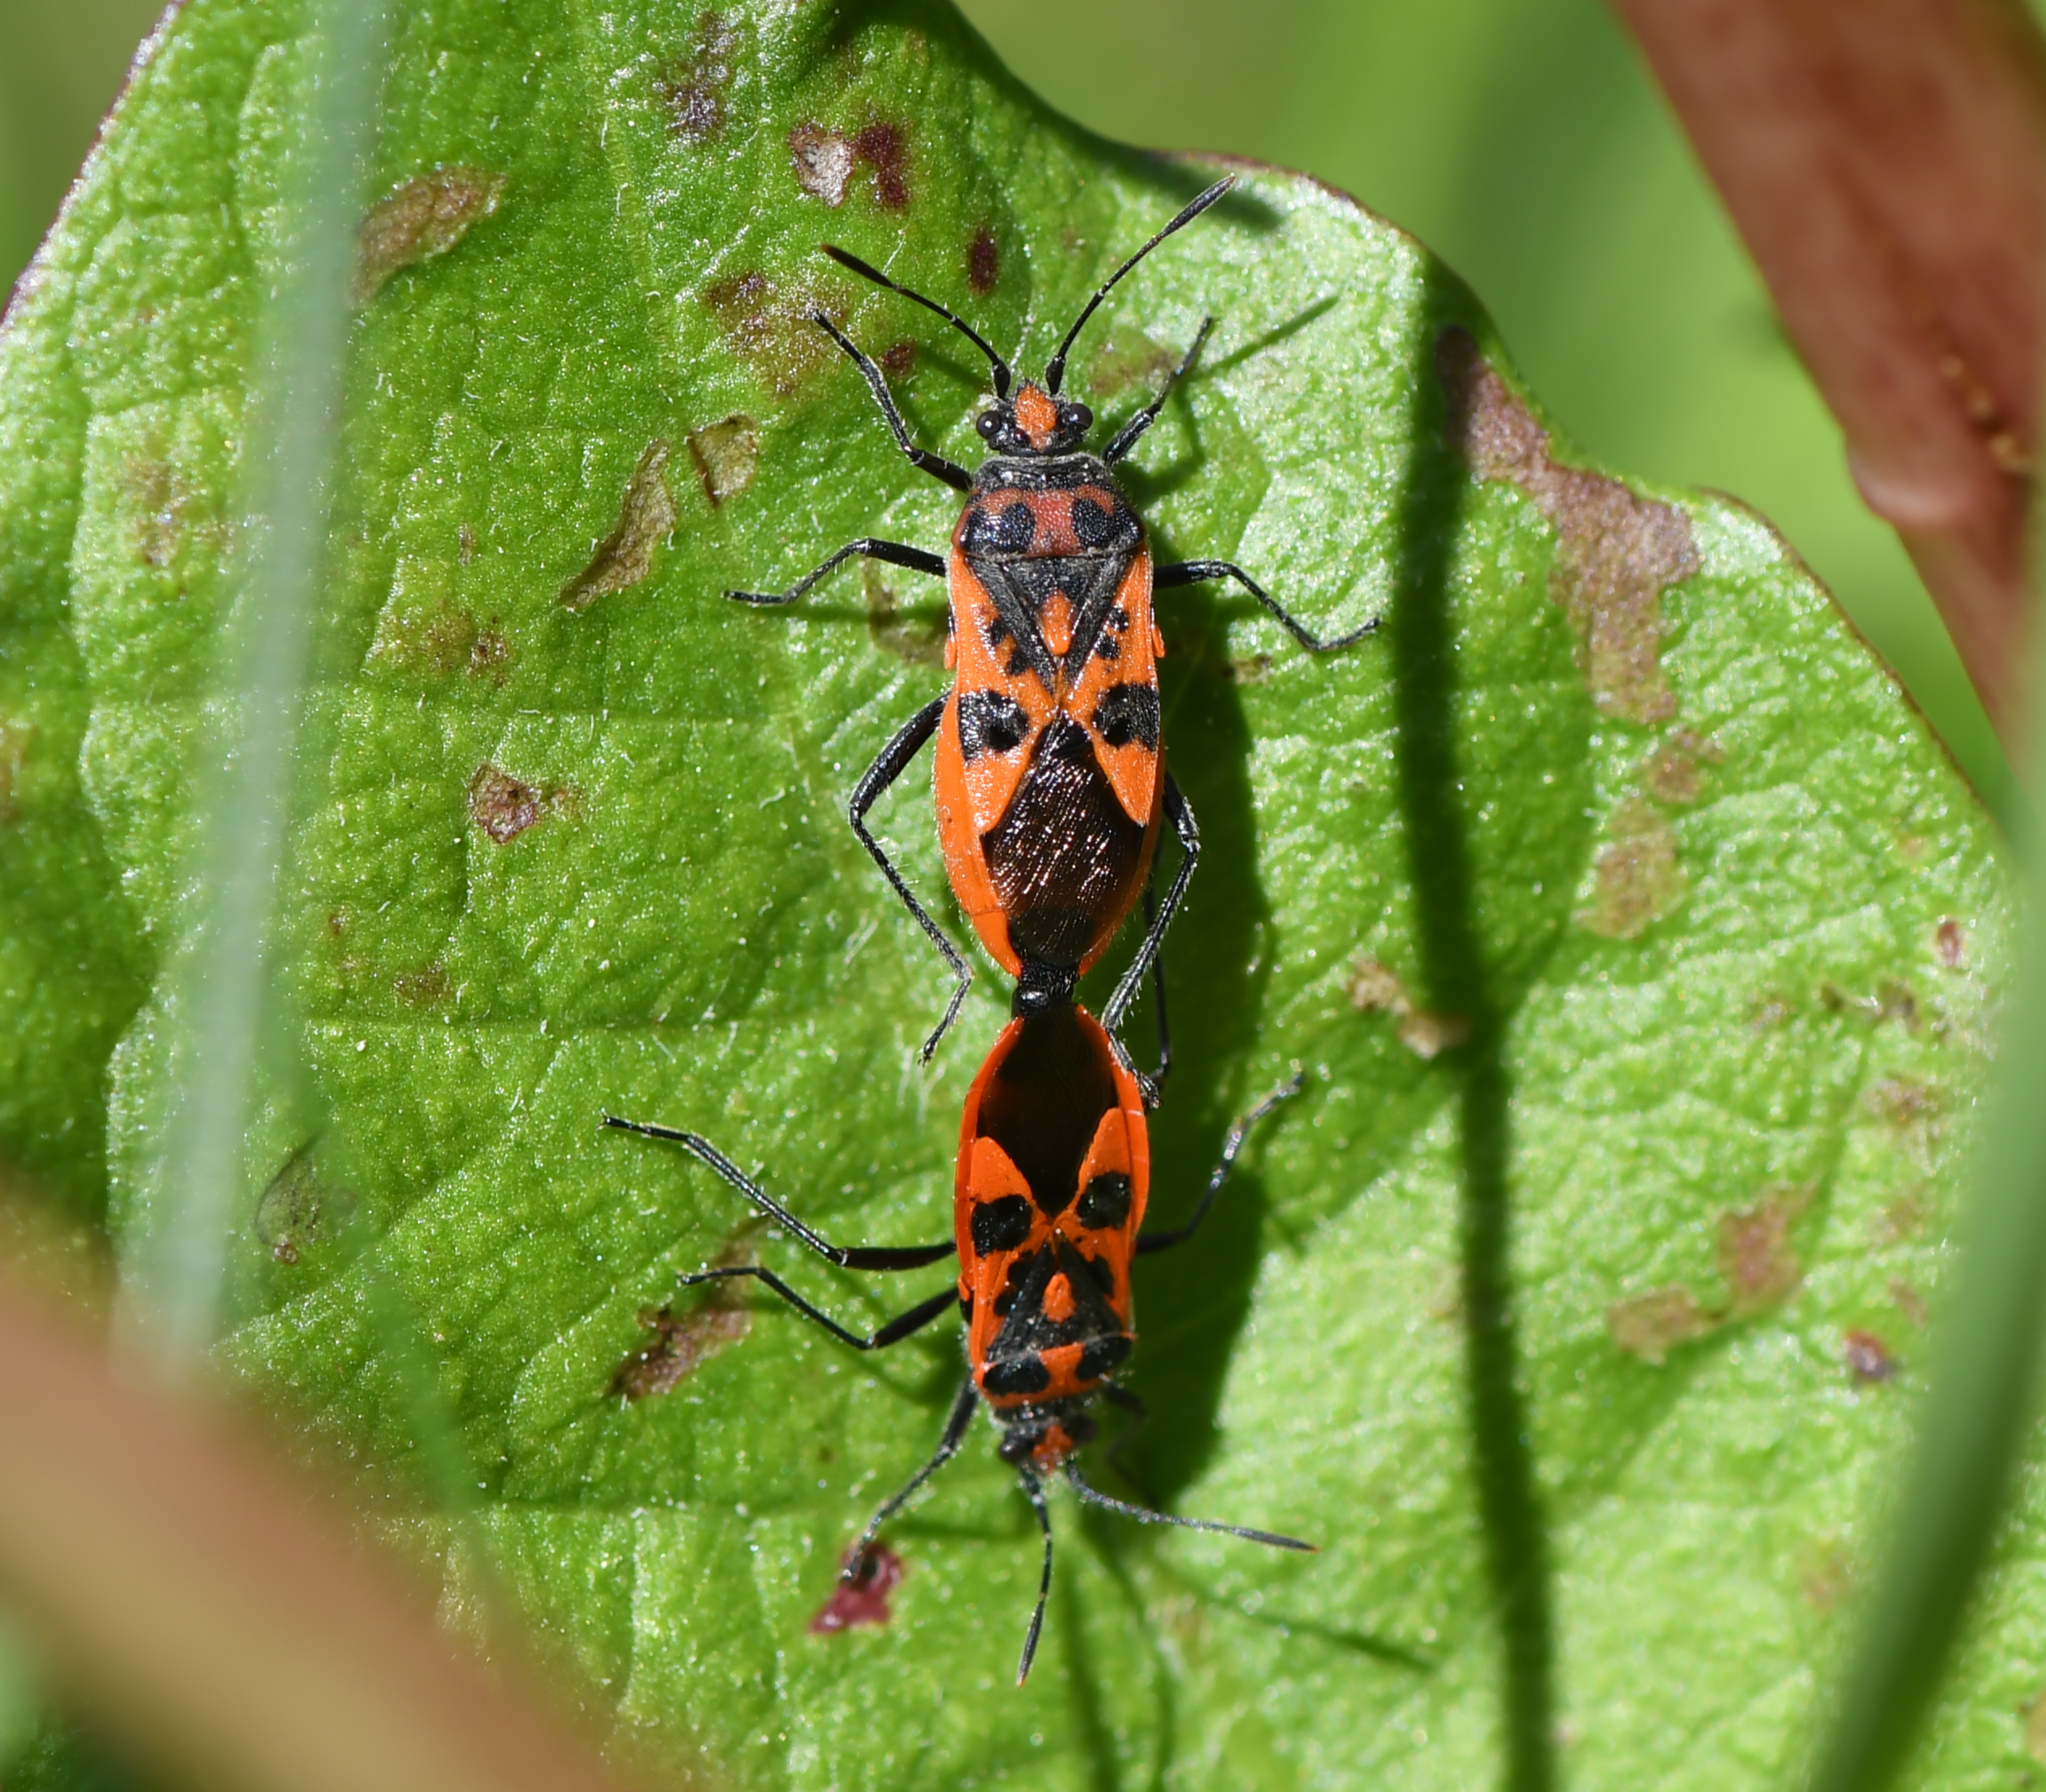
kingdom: Animalia
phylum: Arthropoda
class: Insecta
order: Hemiptera
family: Rhopalidae
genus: Corizus
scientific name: Corizus hyoscyami
